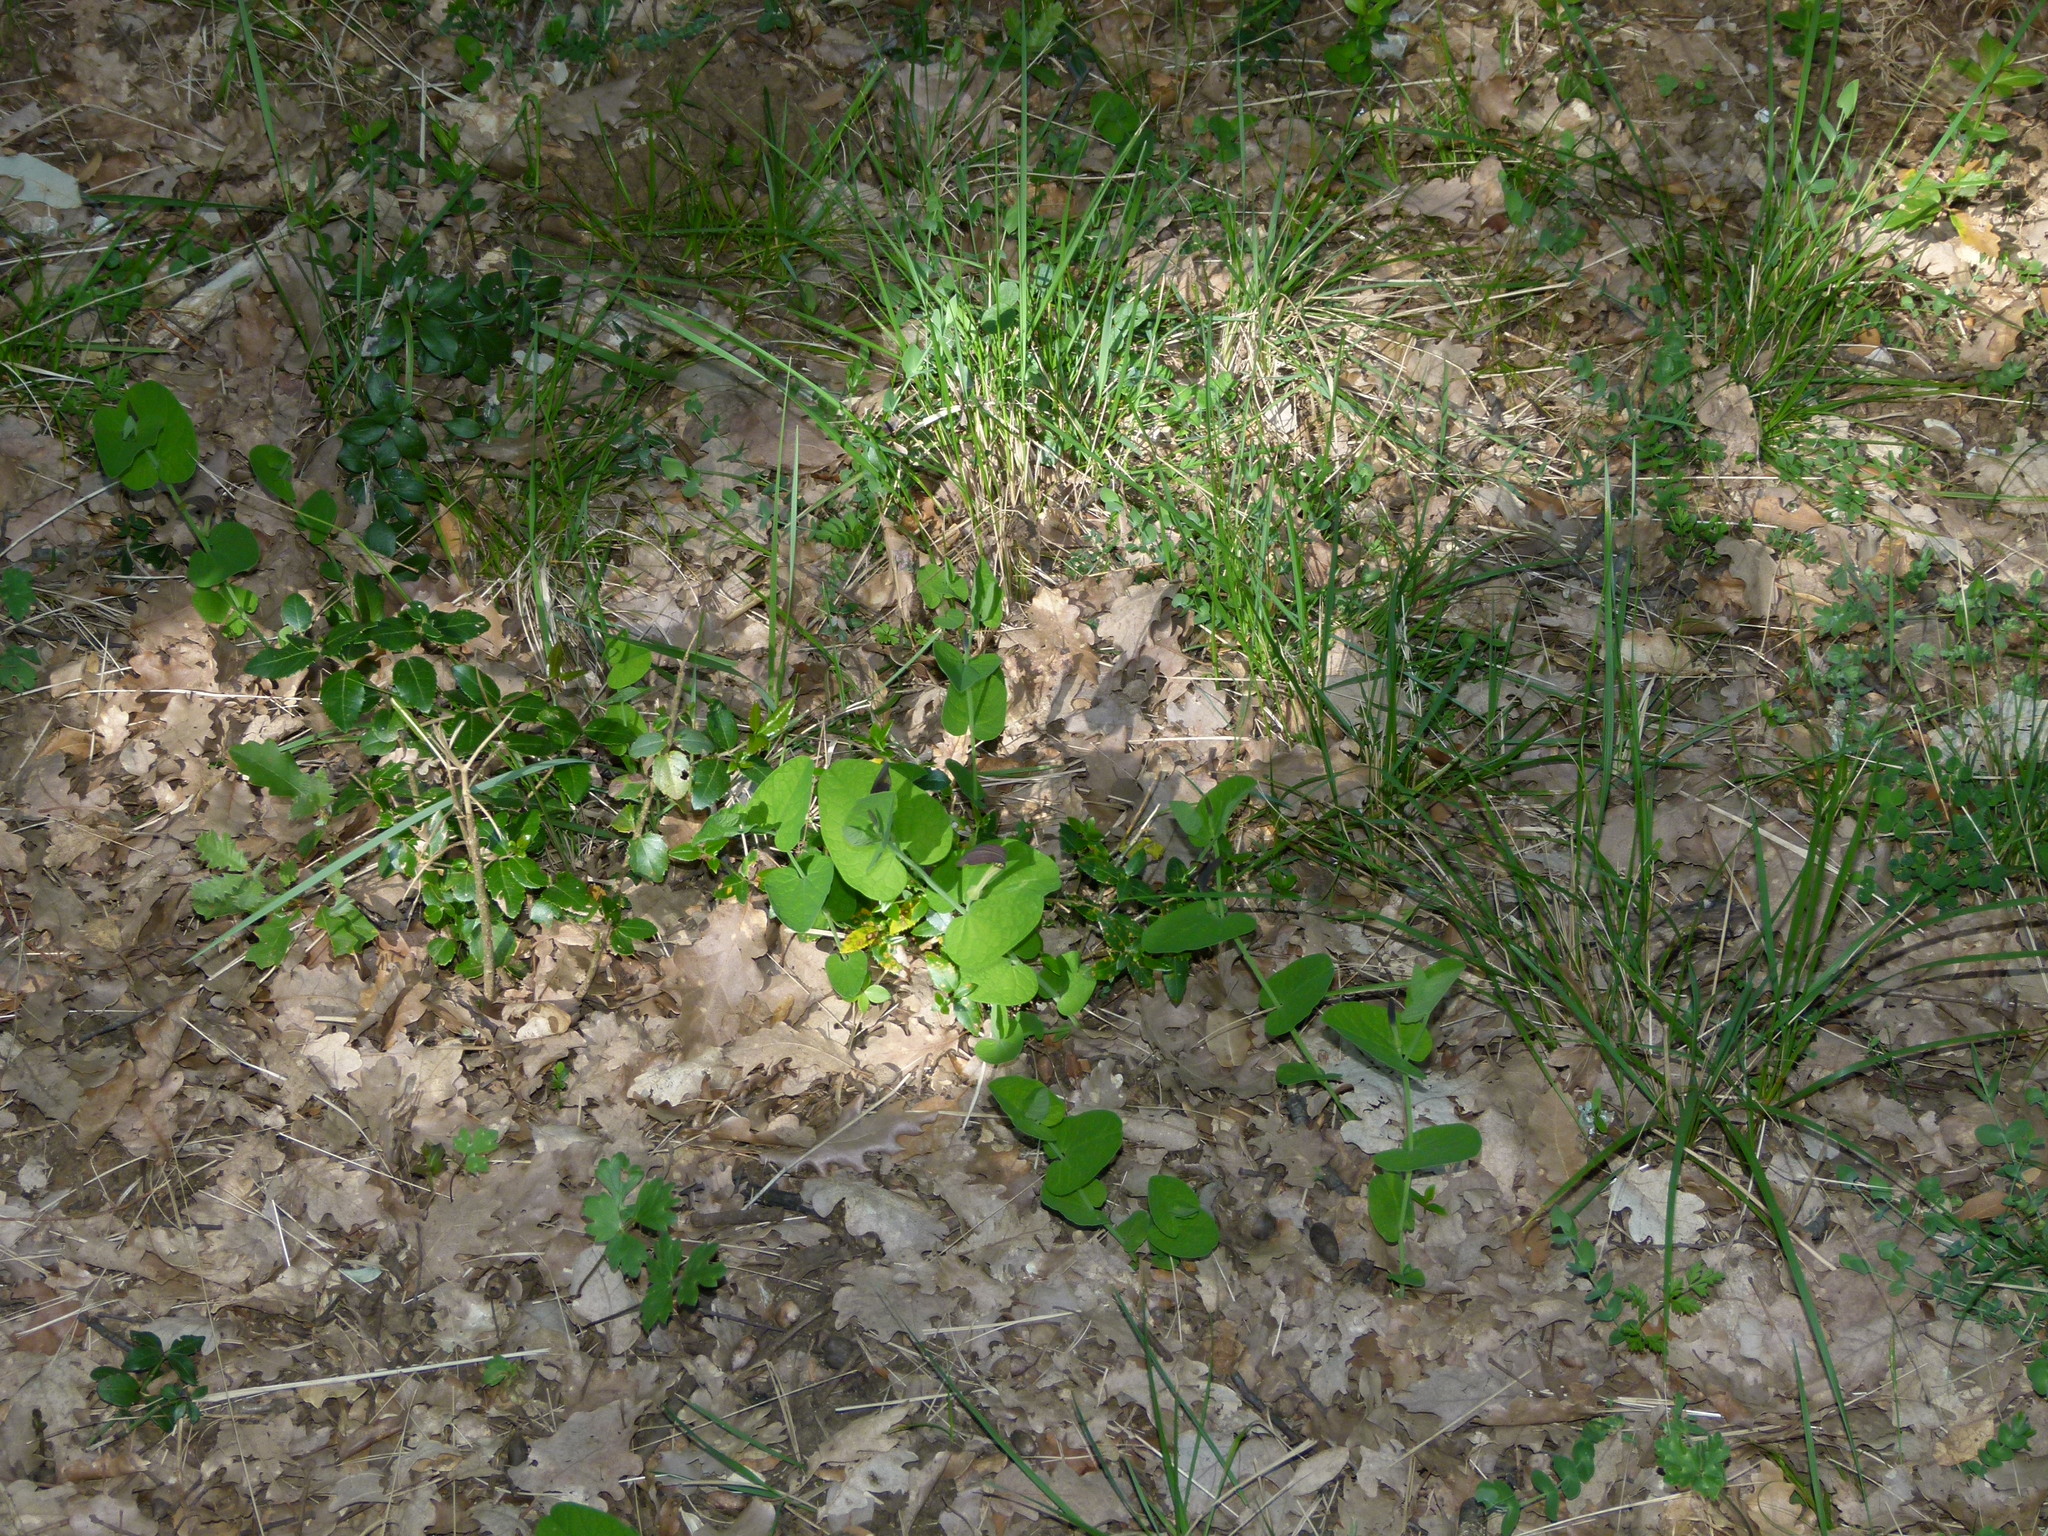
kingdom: Plantae
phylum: Tracheophyta
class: Magnoliopsida
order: Piperales
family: Aristolochiaceae
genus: Aristolochia
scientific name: Aristolochia rotunda
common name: Smearwort
